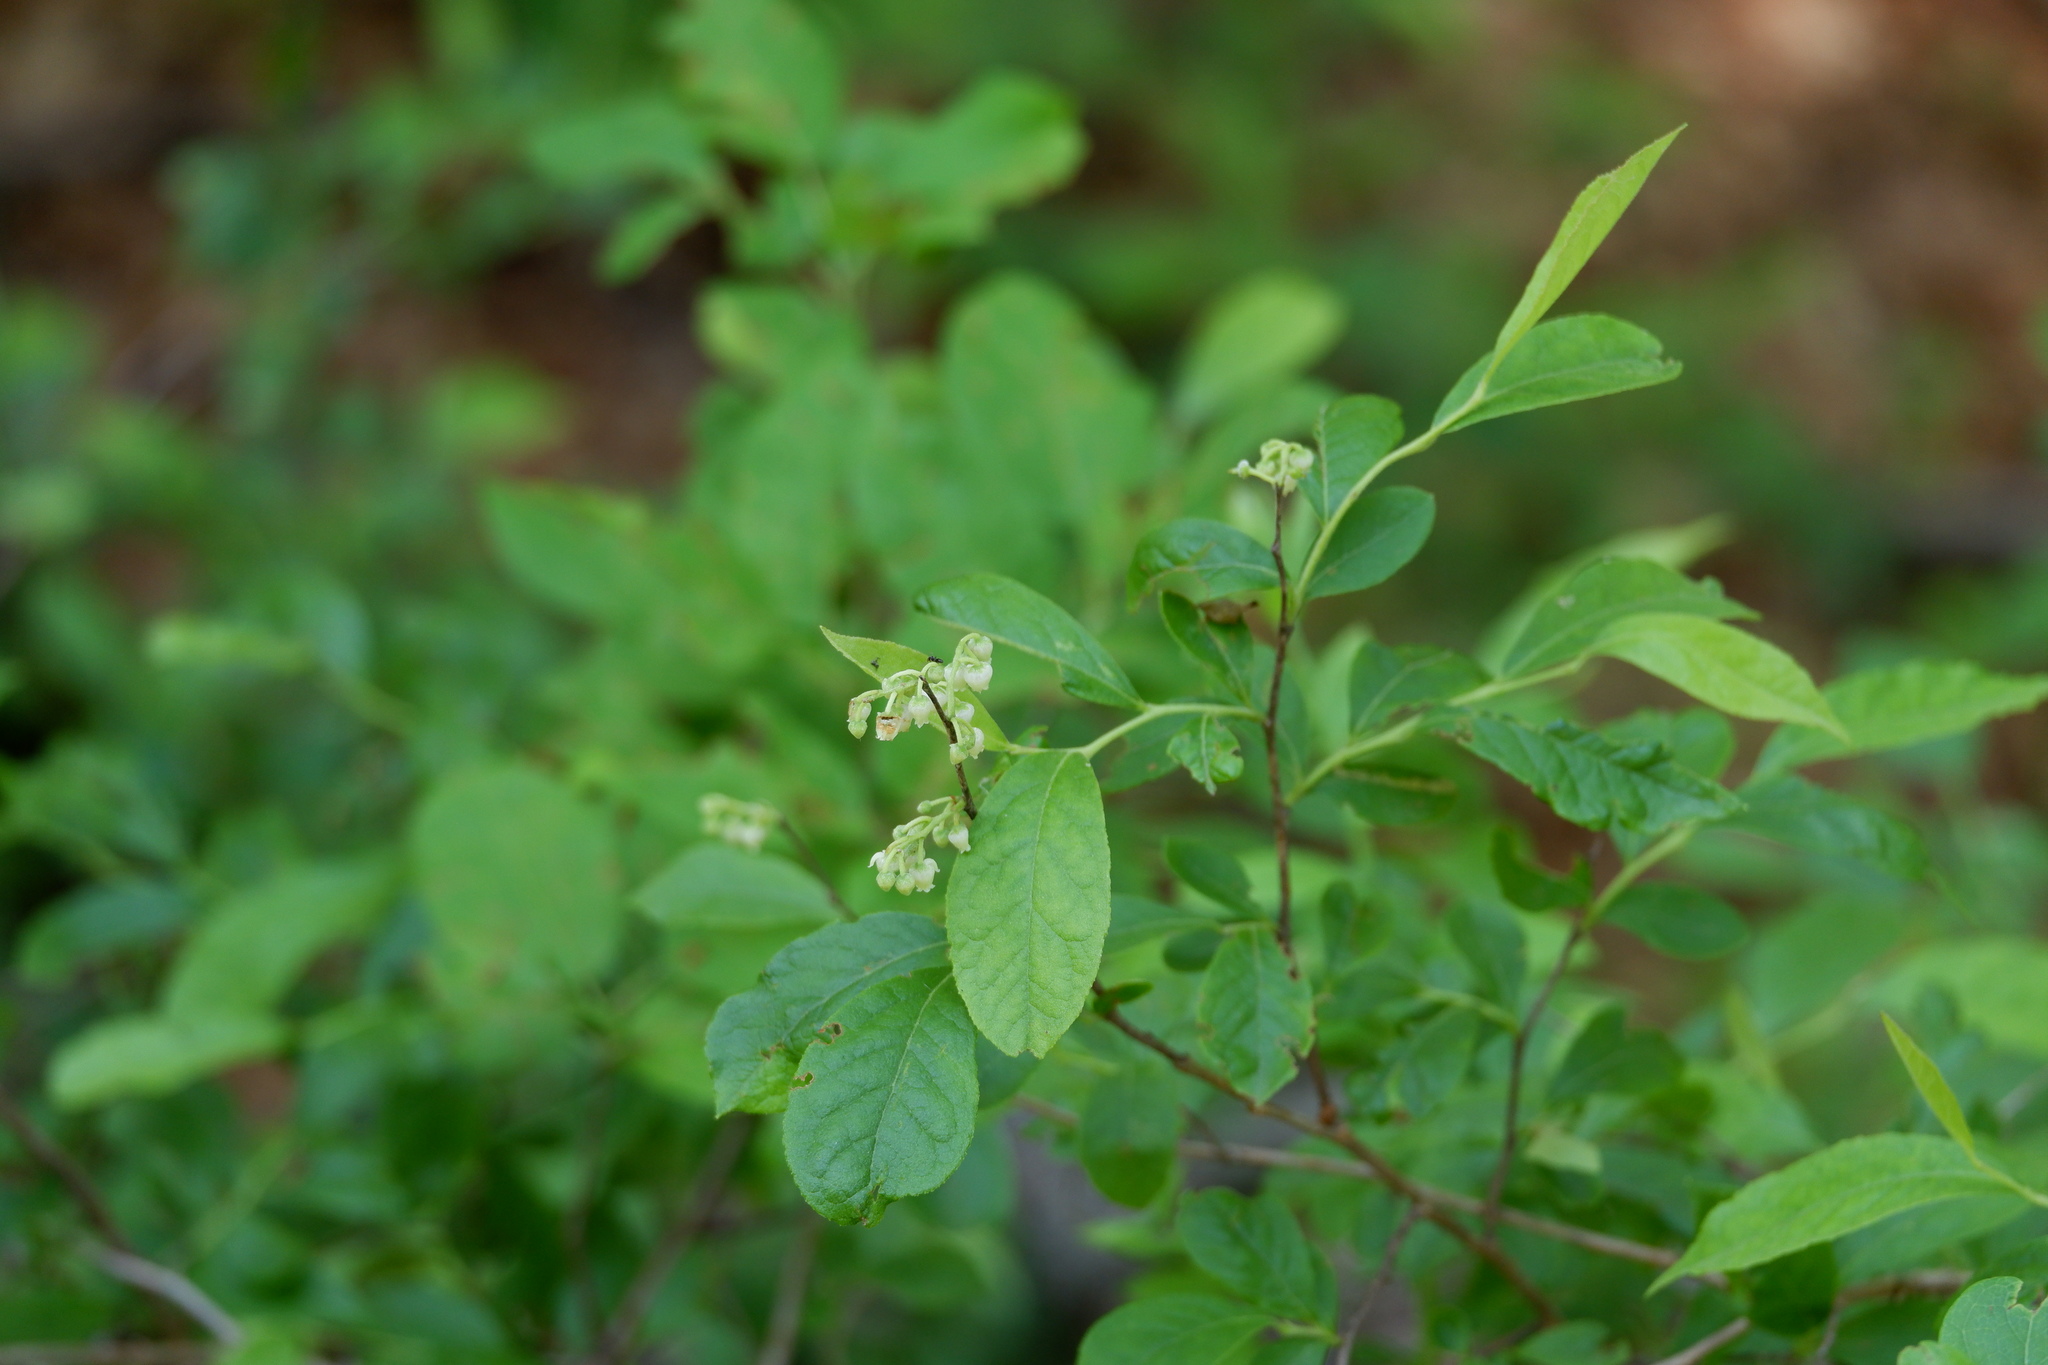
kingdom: Plantae
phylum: Tracheophyta
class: Magnoliopsida
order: Ericales
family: Ericaceae
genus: Lyonia
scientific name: Lyonia ligustrina
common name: Maleberry
